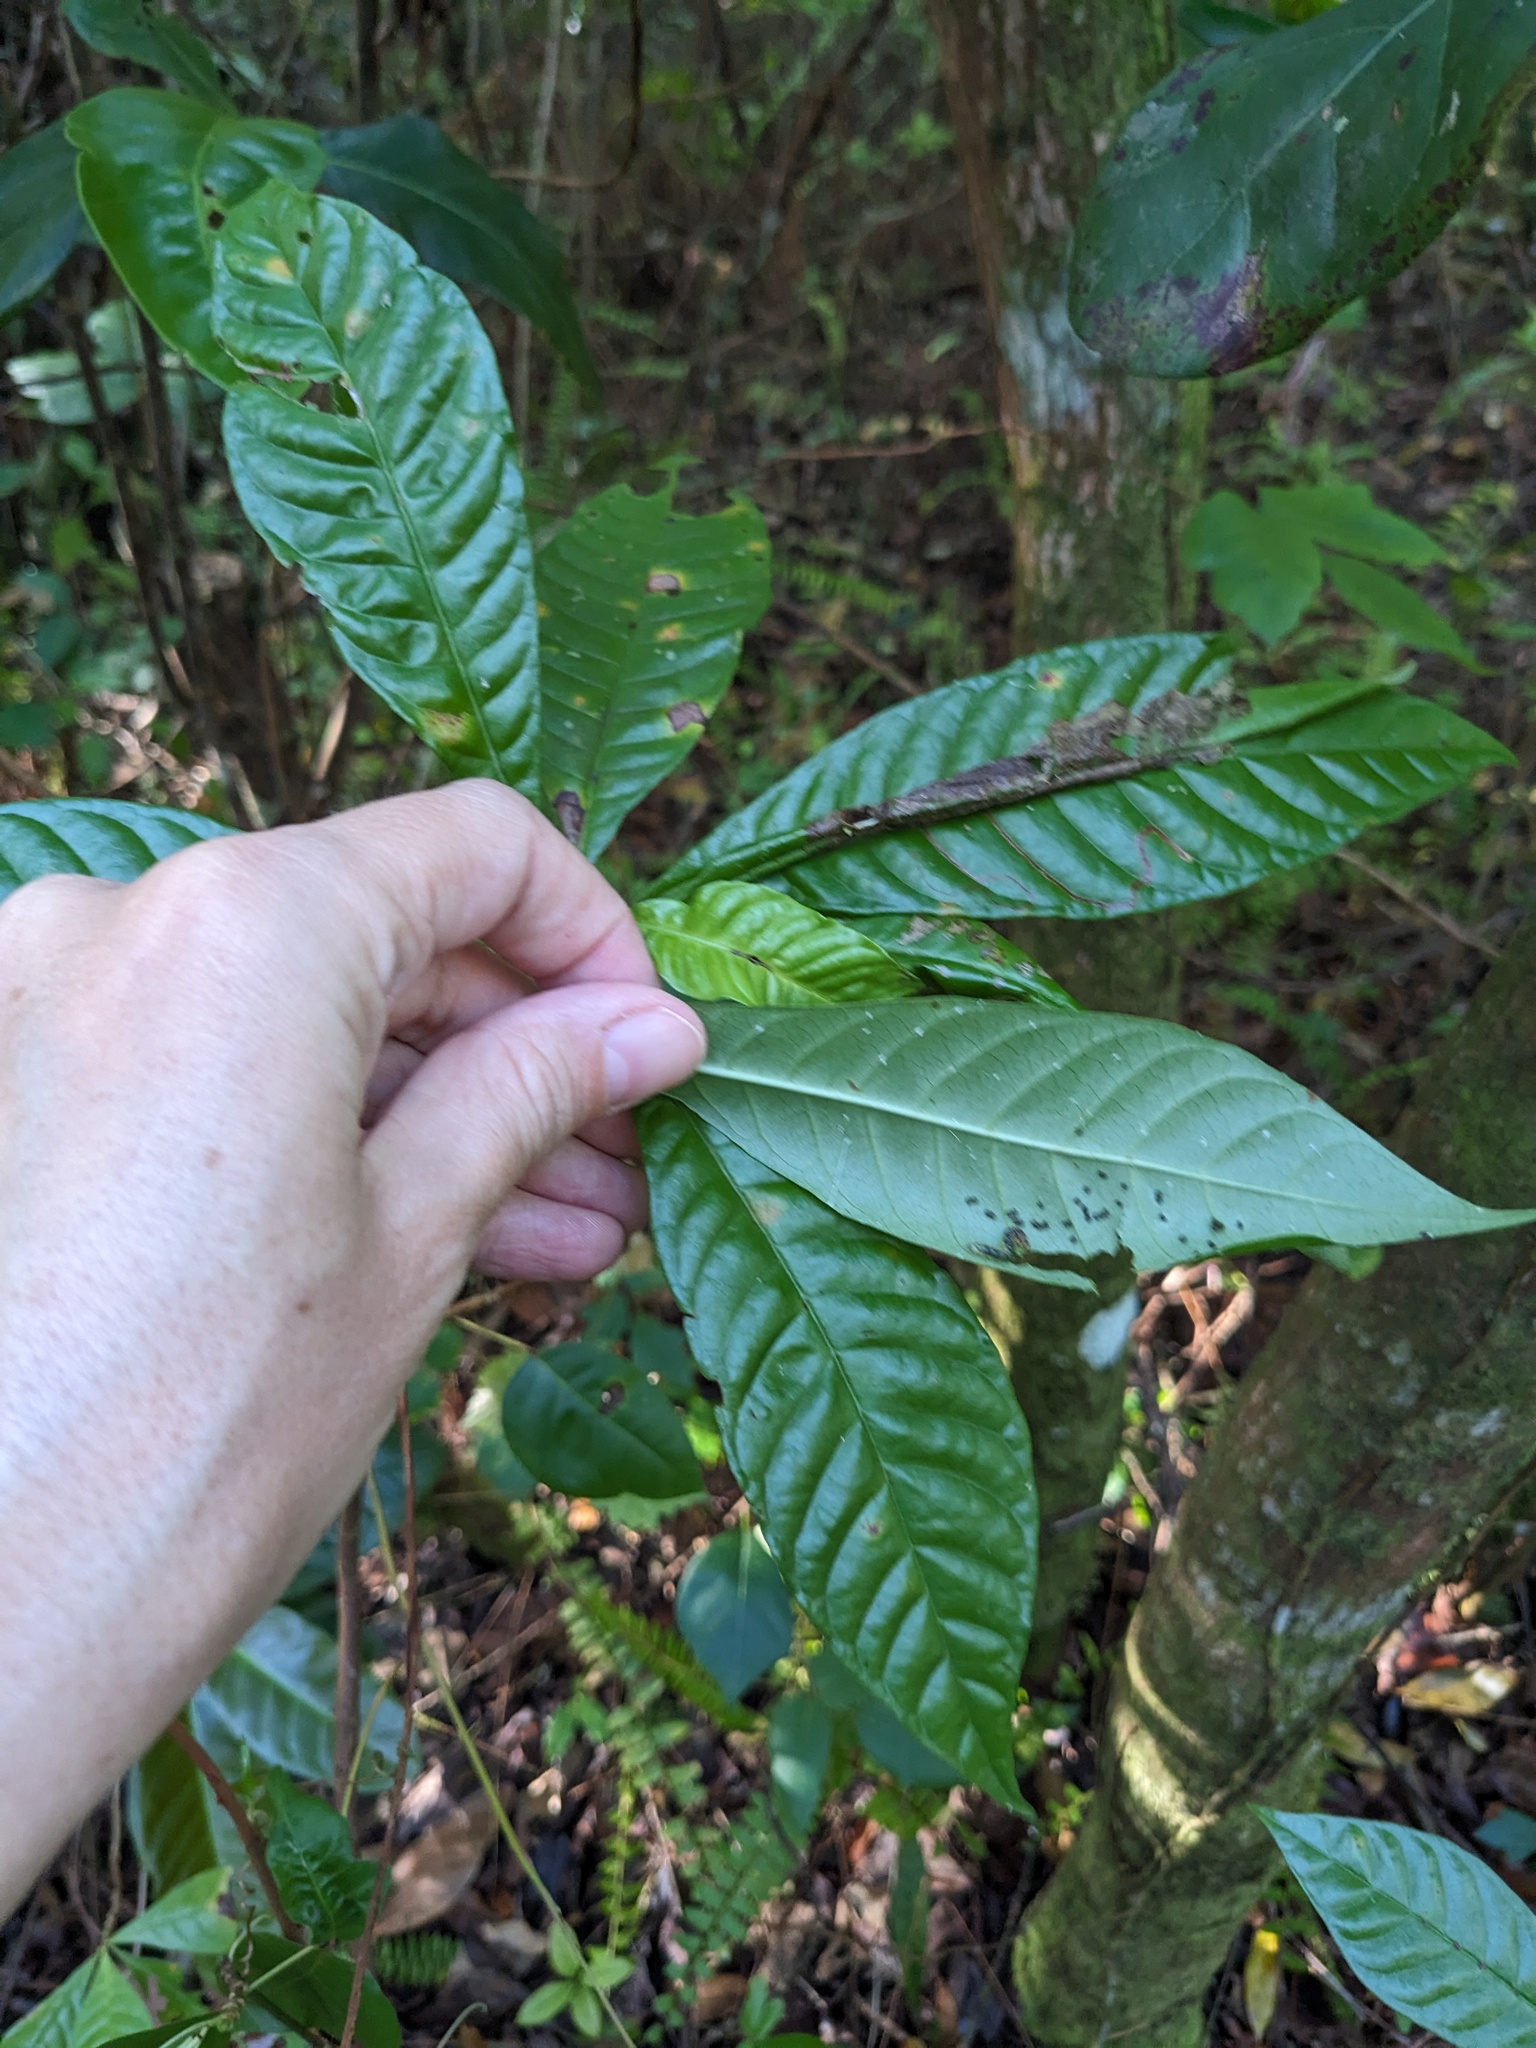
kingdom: Plantae
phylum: Tracheophyta
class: Magnoliopsida
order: Gentianales
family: Rubiaceae
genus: Psychotria
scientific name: Psychotria nervosa
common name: Bastard cankerberry
